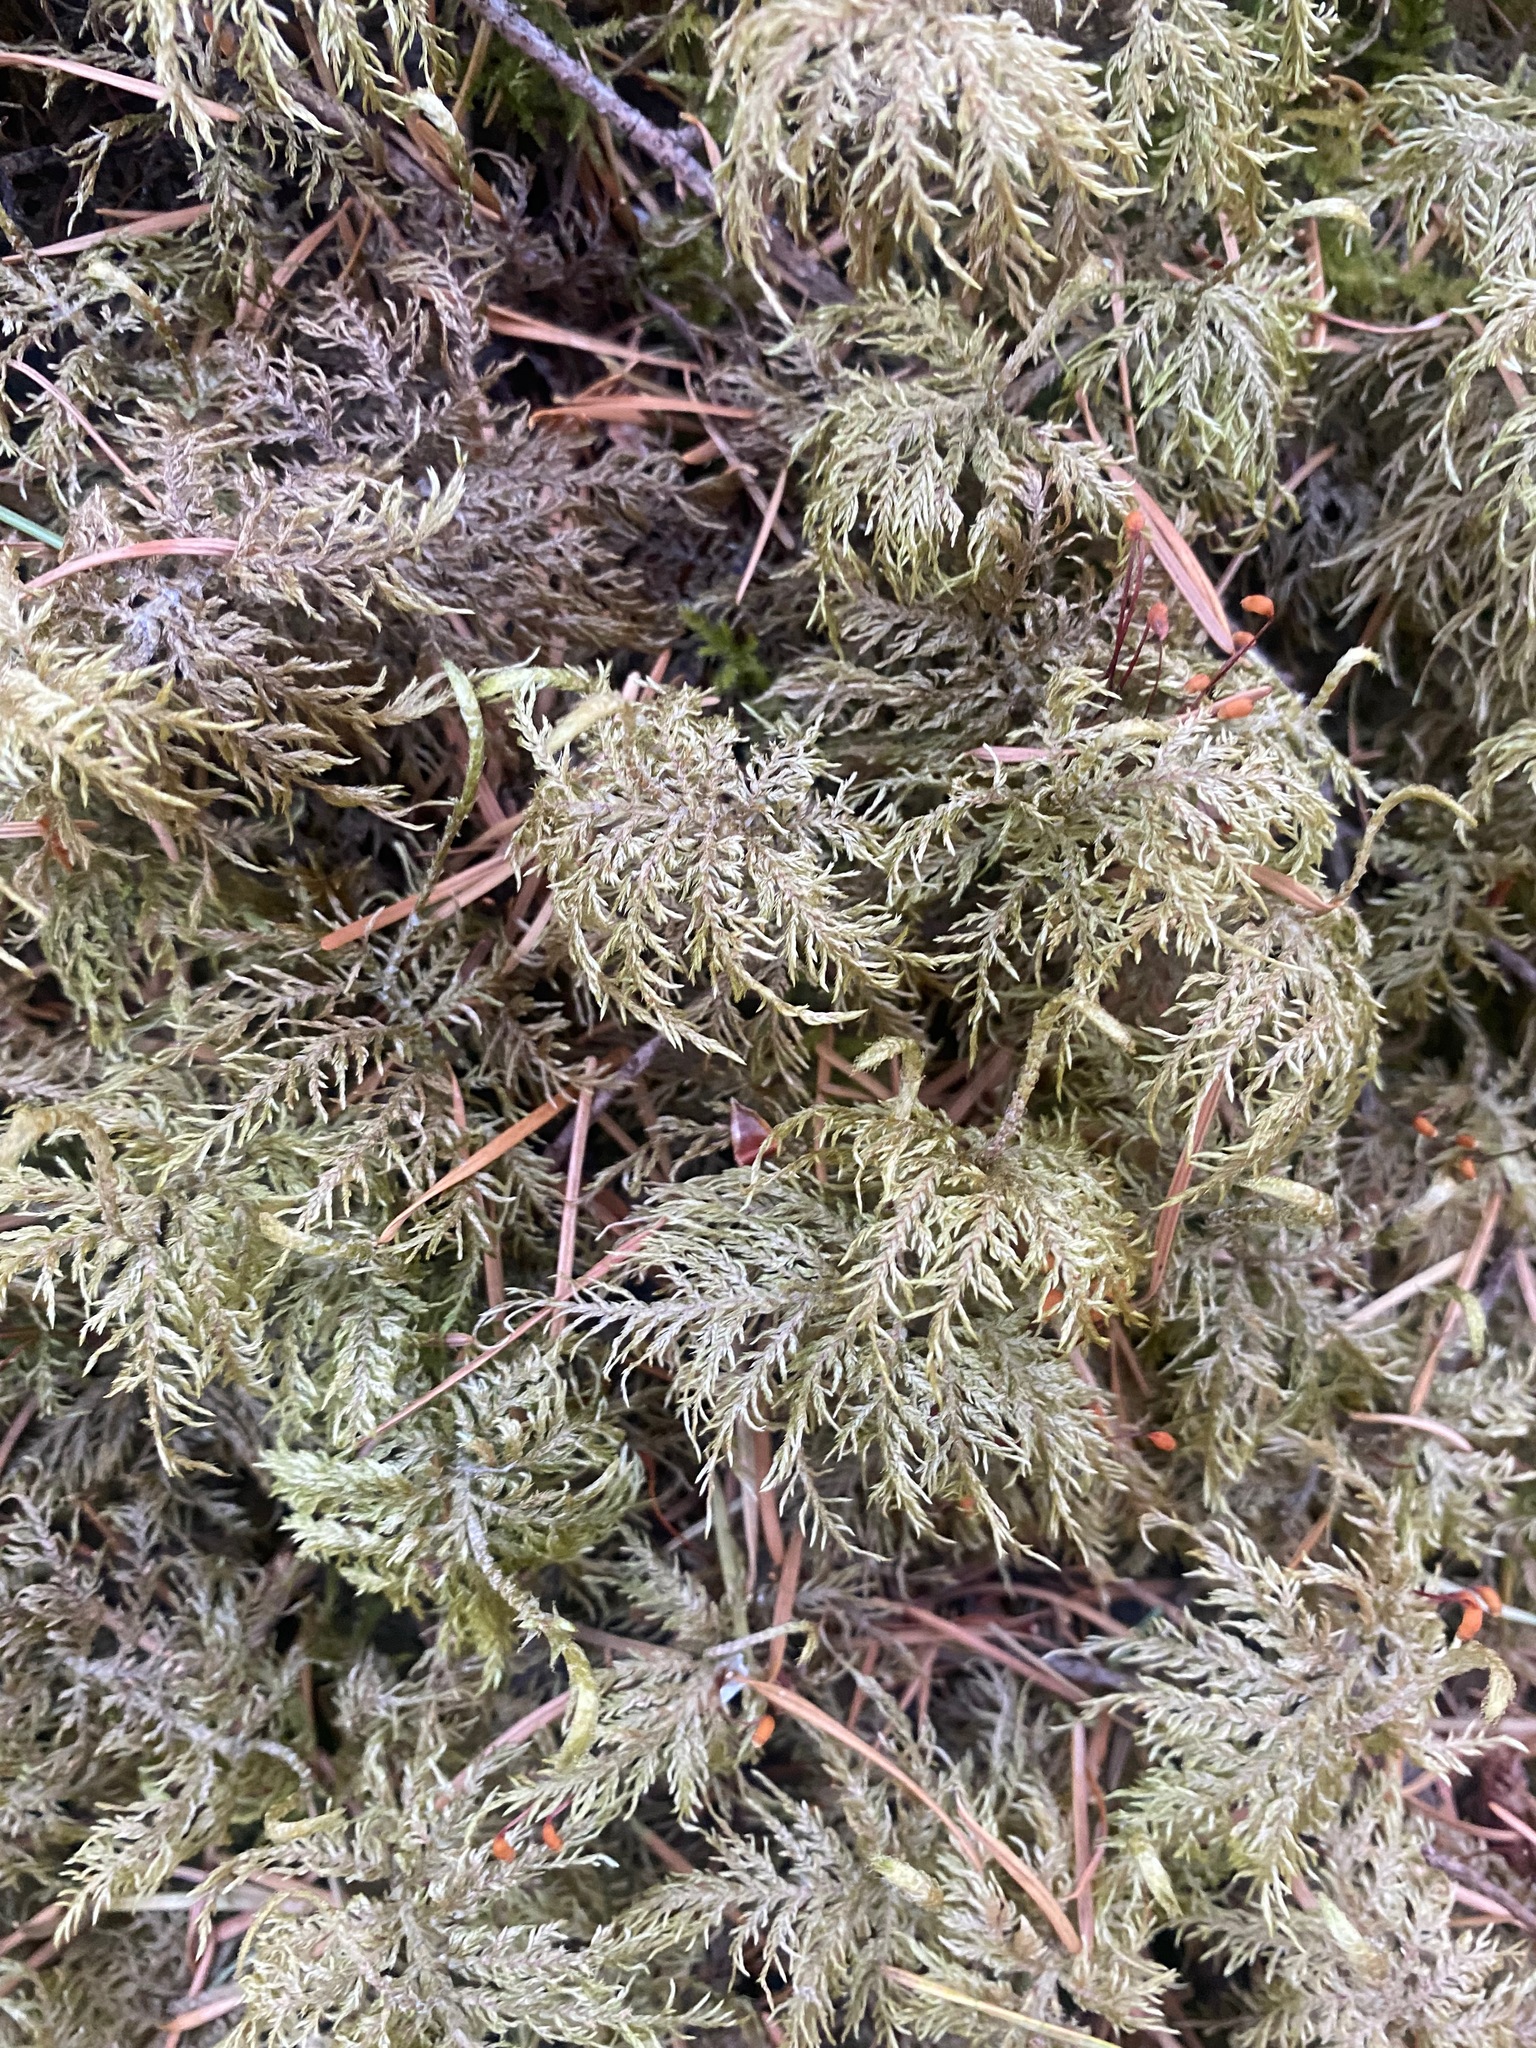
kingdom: Plantae
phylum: Bryophyta
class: Bryopsida
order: Hypnales
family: Hylocomiaceae
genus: Hylocomium
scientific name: Hylocomium splendens
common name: Stairstep moss
